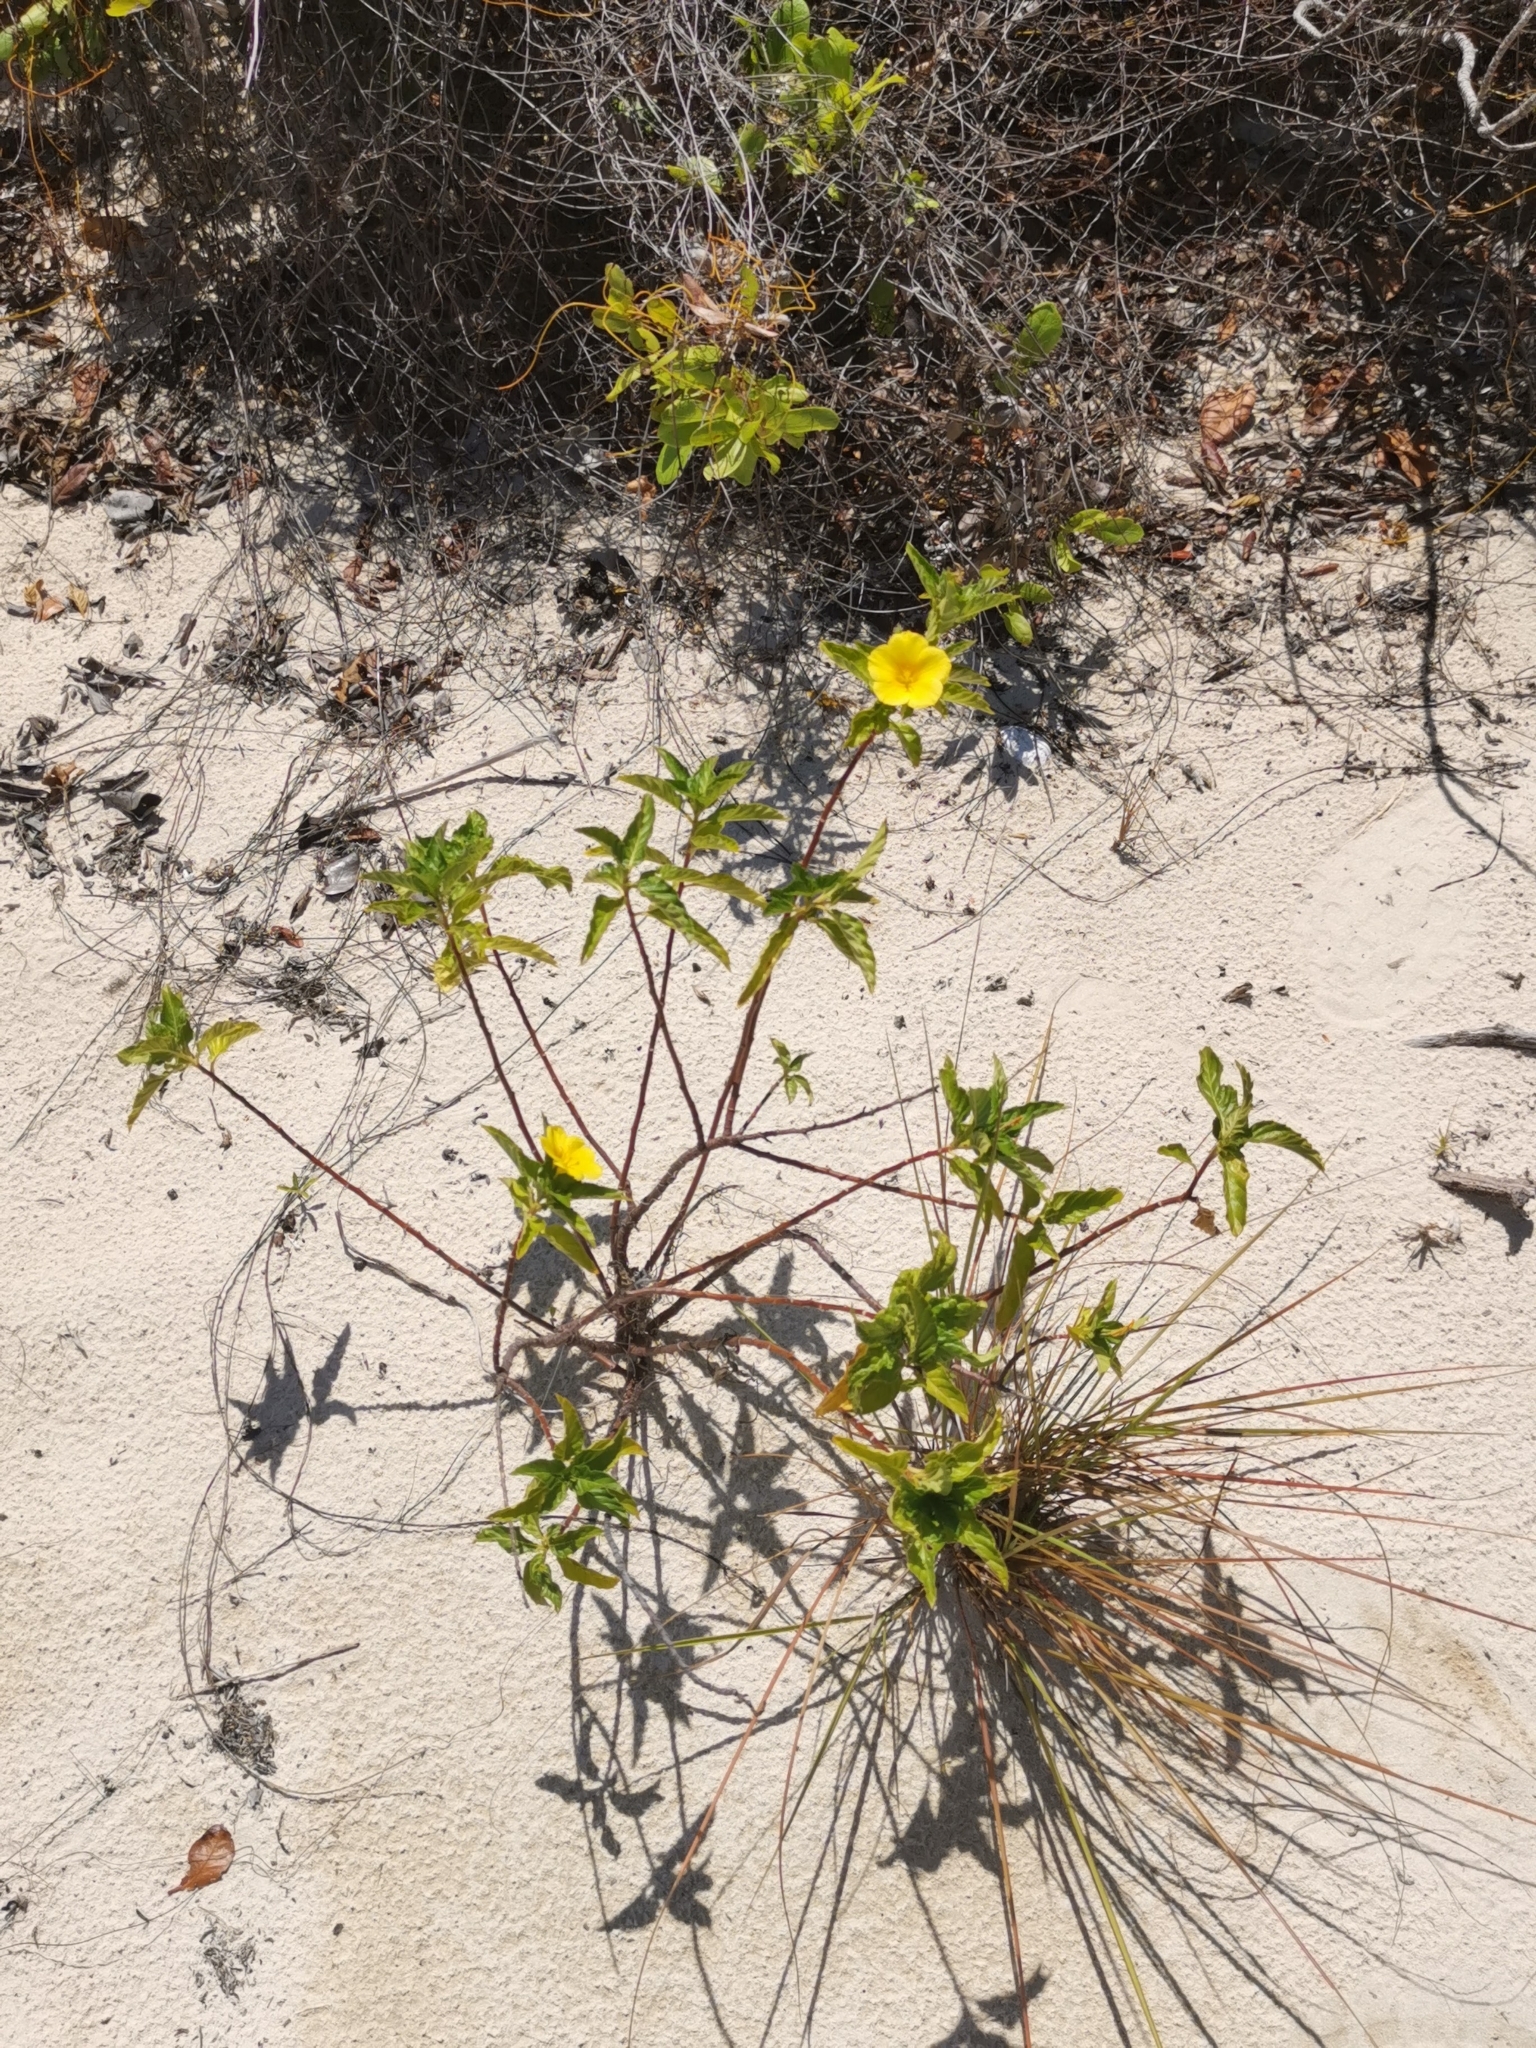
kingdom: Plantae
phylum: Tracheophyta
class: Magnoliopsida
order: Malpighiales
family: Turneraceae
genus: Turnera
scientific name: Turnera ulmifolia
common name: Ramgoat dashalong
